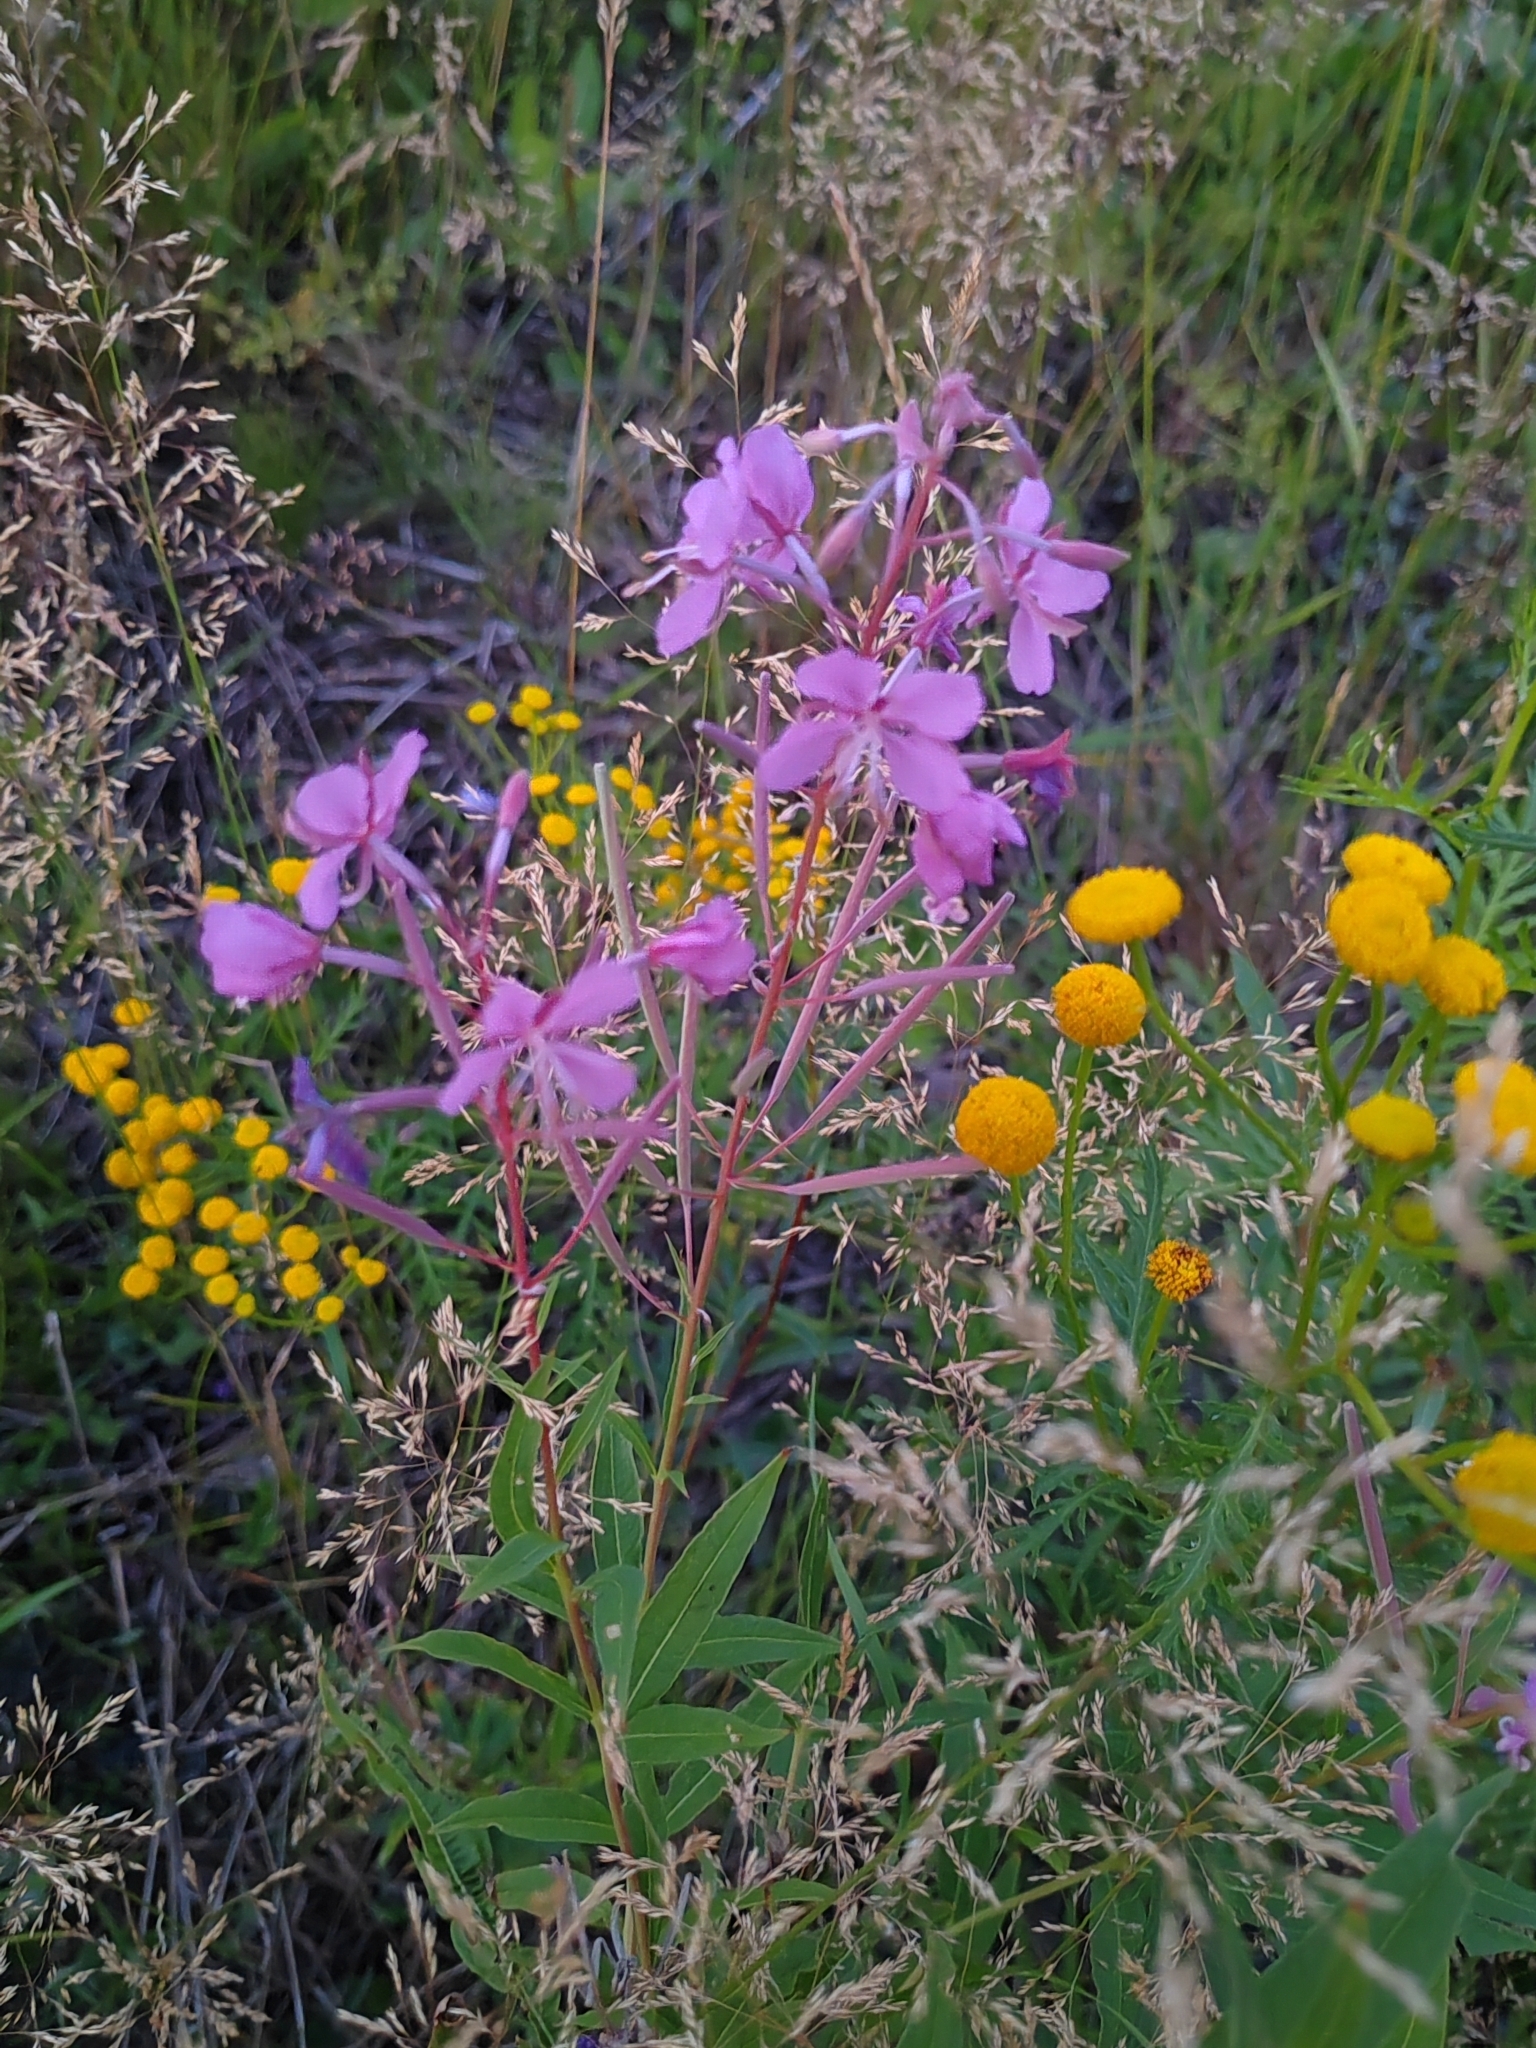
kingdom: Plantae
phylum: Tracheophyta
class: Magnoliopsida
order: Myrtales
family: Onagraceae
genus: Chamaenerion
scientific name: Chamaenerion angustifolium
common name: Fireweed
